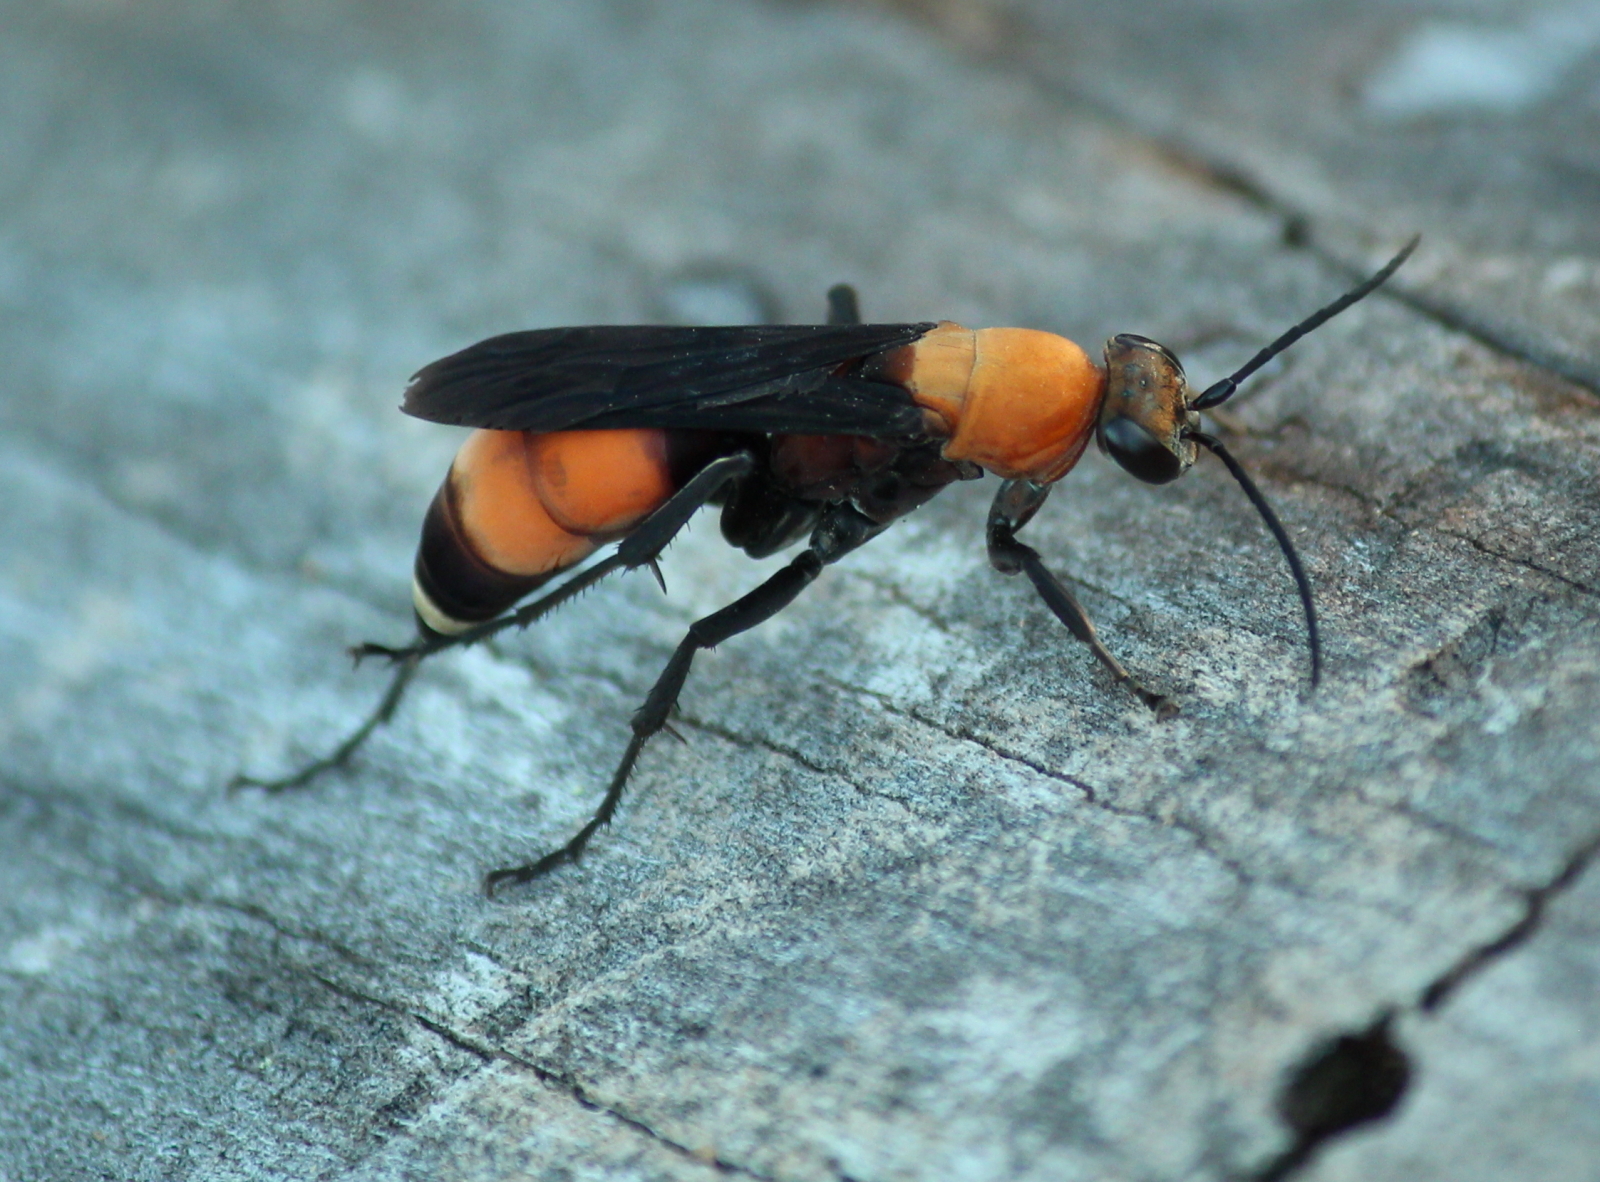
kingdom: Animalia
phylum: Arthropoda
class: Insecta
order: Hymenoptera
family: Pompilidae
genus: Psorthaspis
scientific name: Psorthaspis sanguinea
